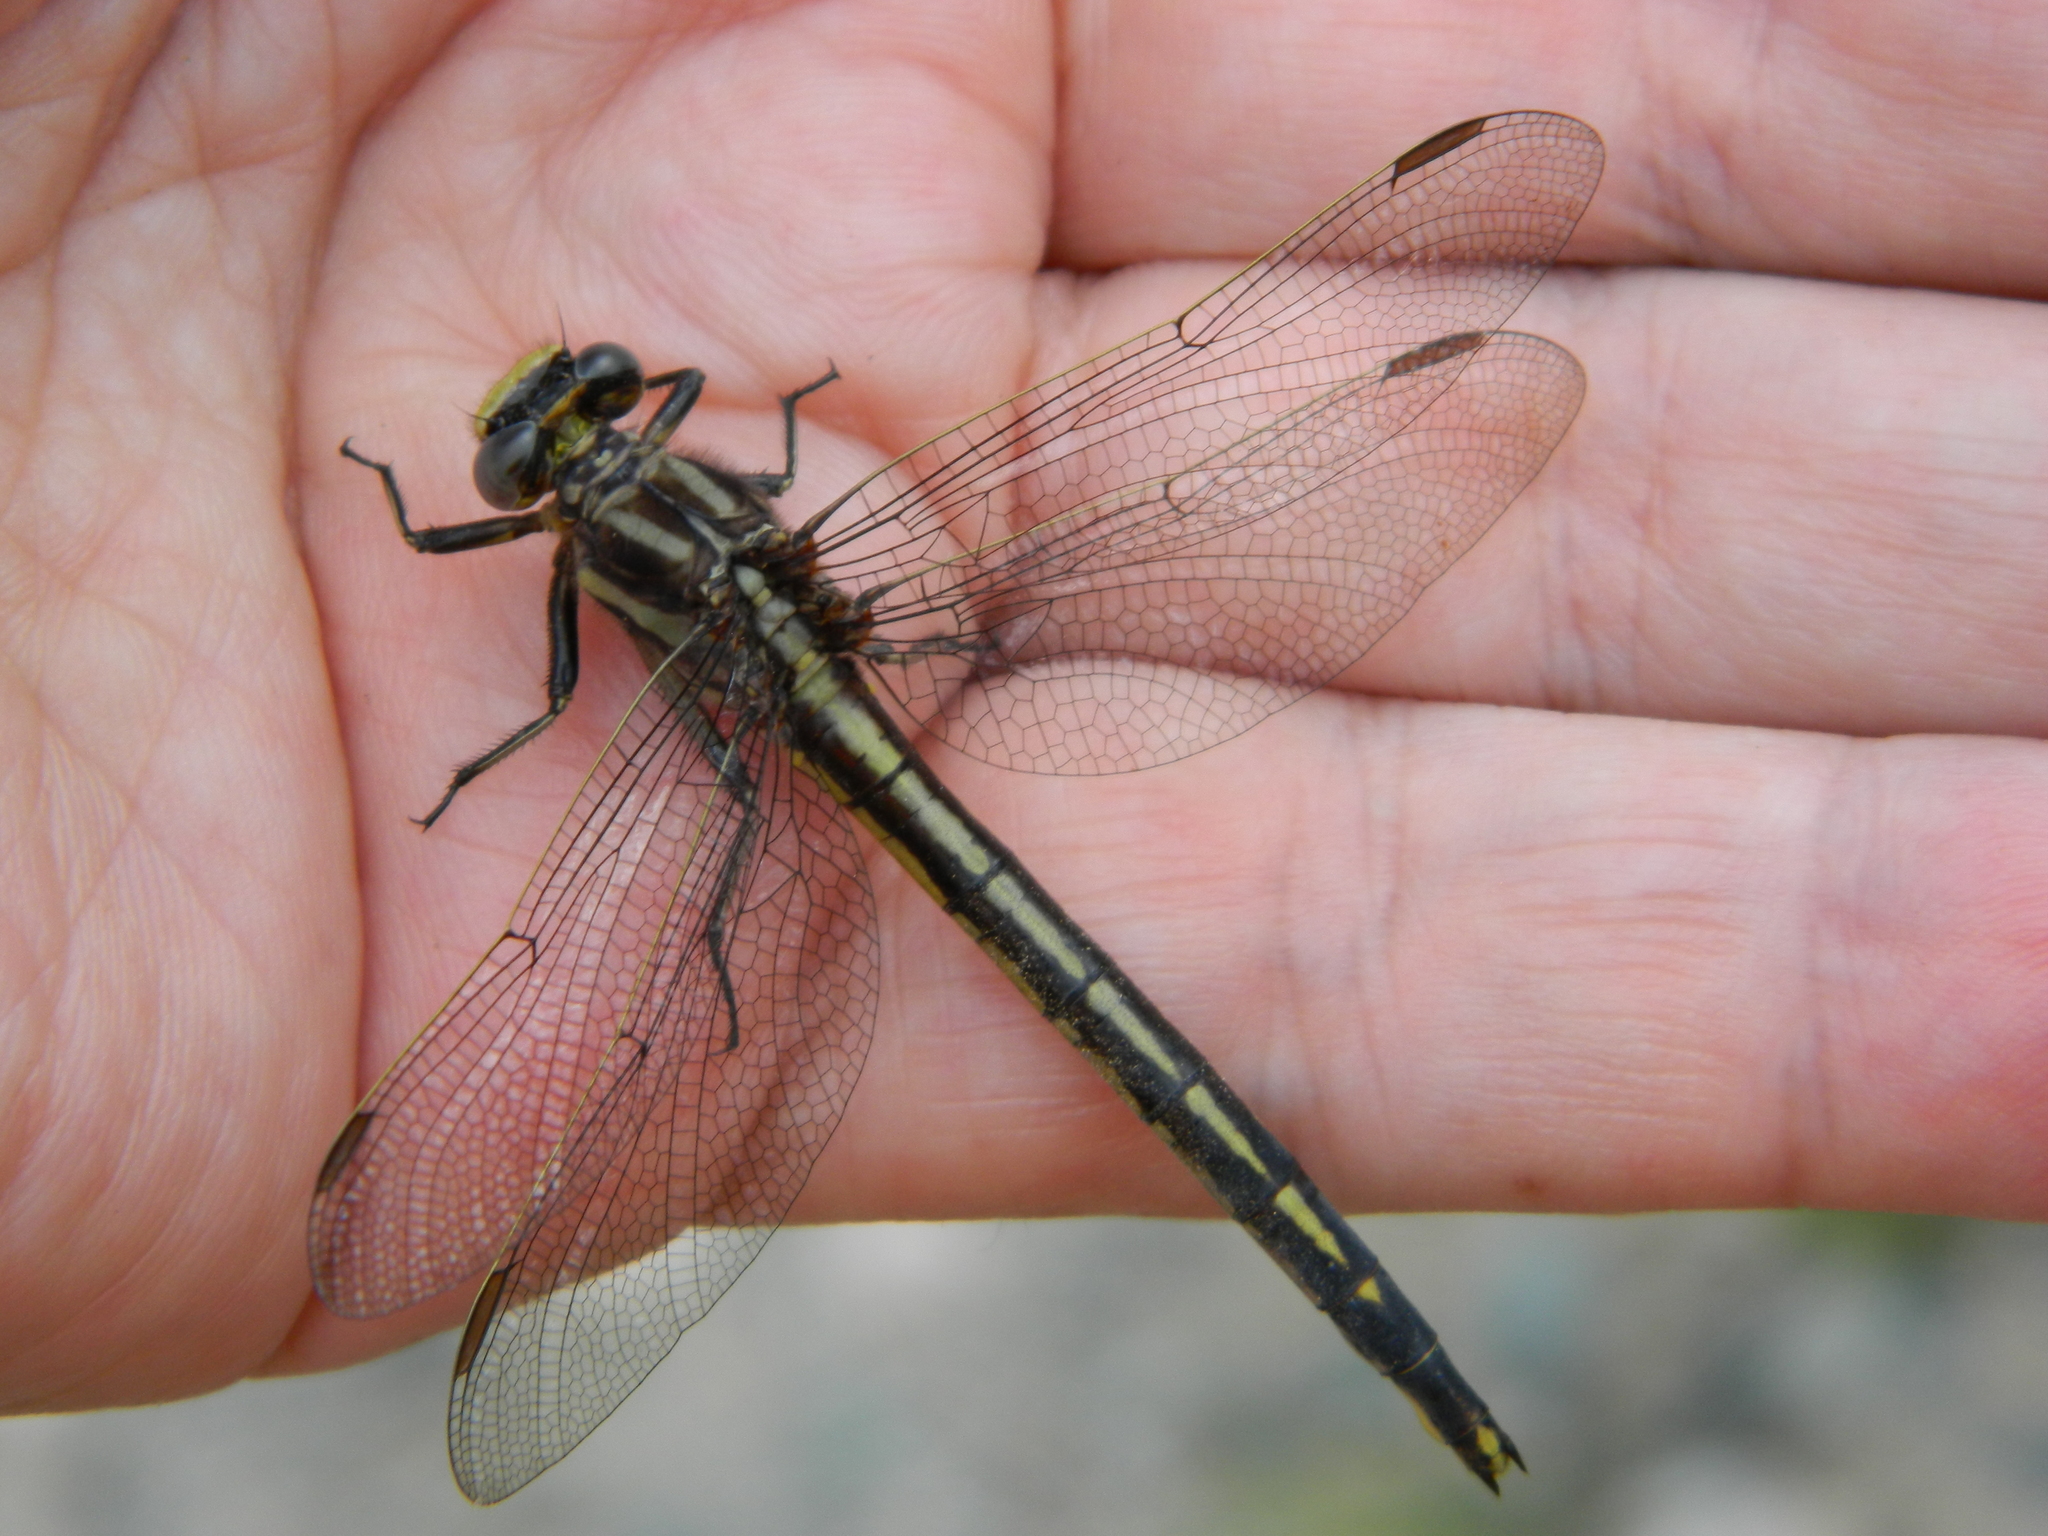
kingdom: Animalia
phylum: Arthropoda
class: Insecta
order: Odonata
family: Gomphidae
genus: Phanogomphus
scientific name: Phanogomphus spicatus
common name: Dusky clubtail
